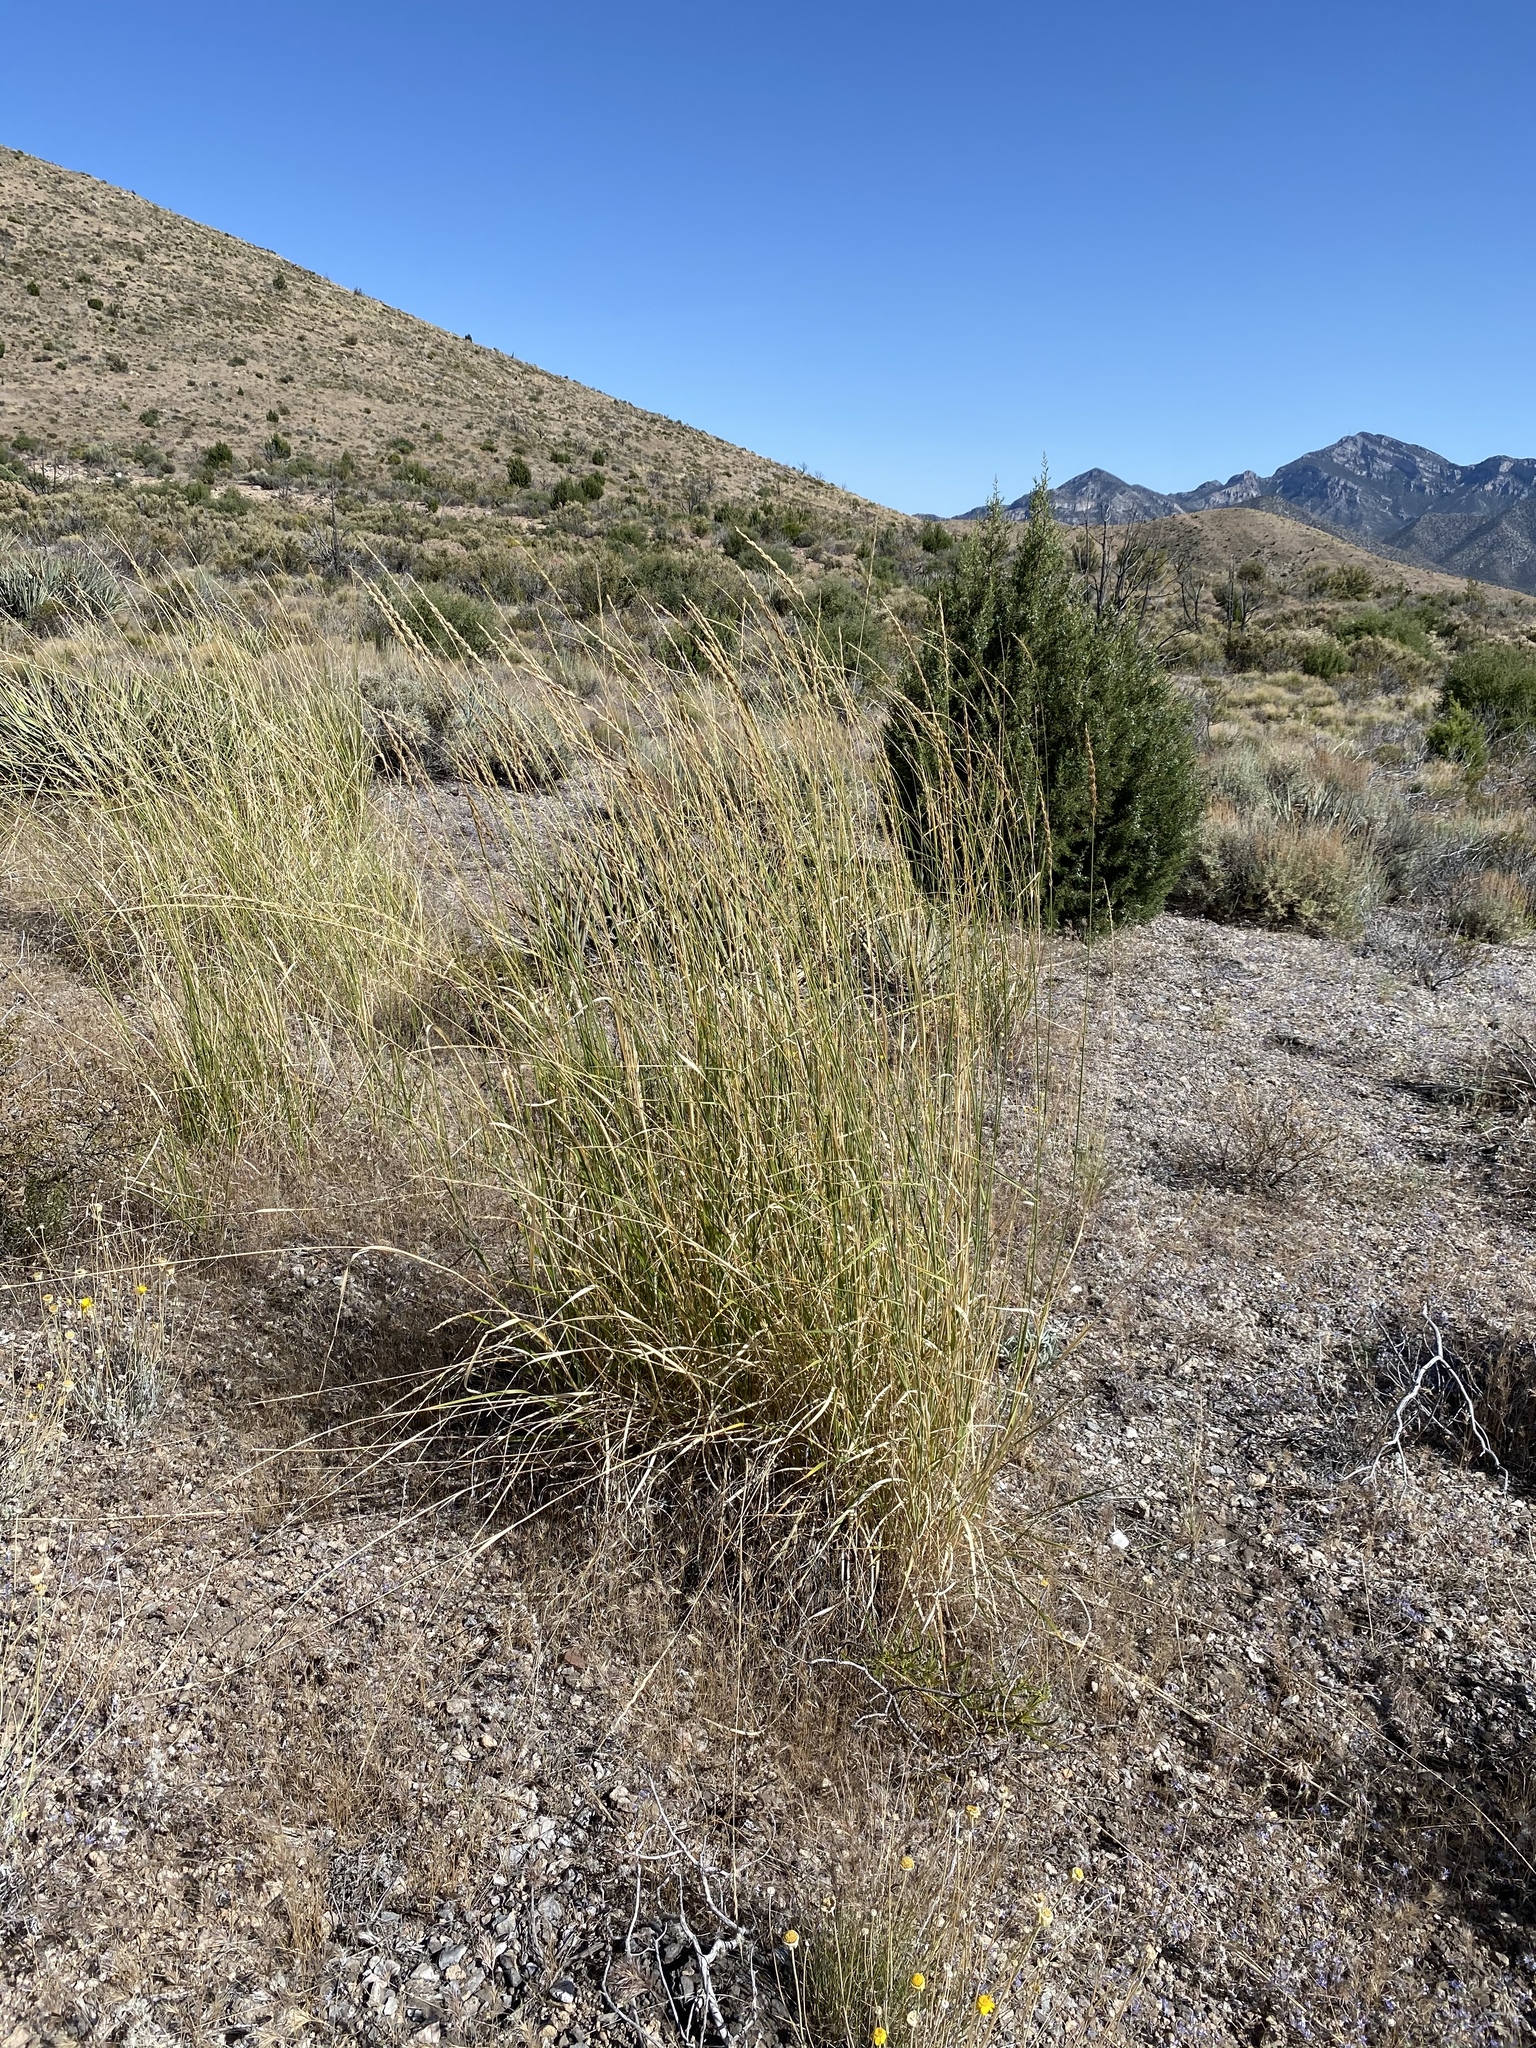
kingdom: Plantae
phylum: Tracheophyta
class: Liliopsida
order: Poales
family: Poaceae
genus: Leymus
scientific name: Leymus cinereus
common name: Basin wild rye
